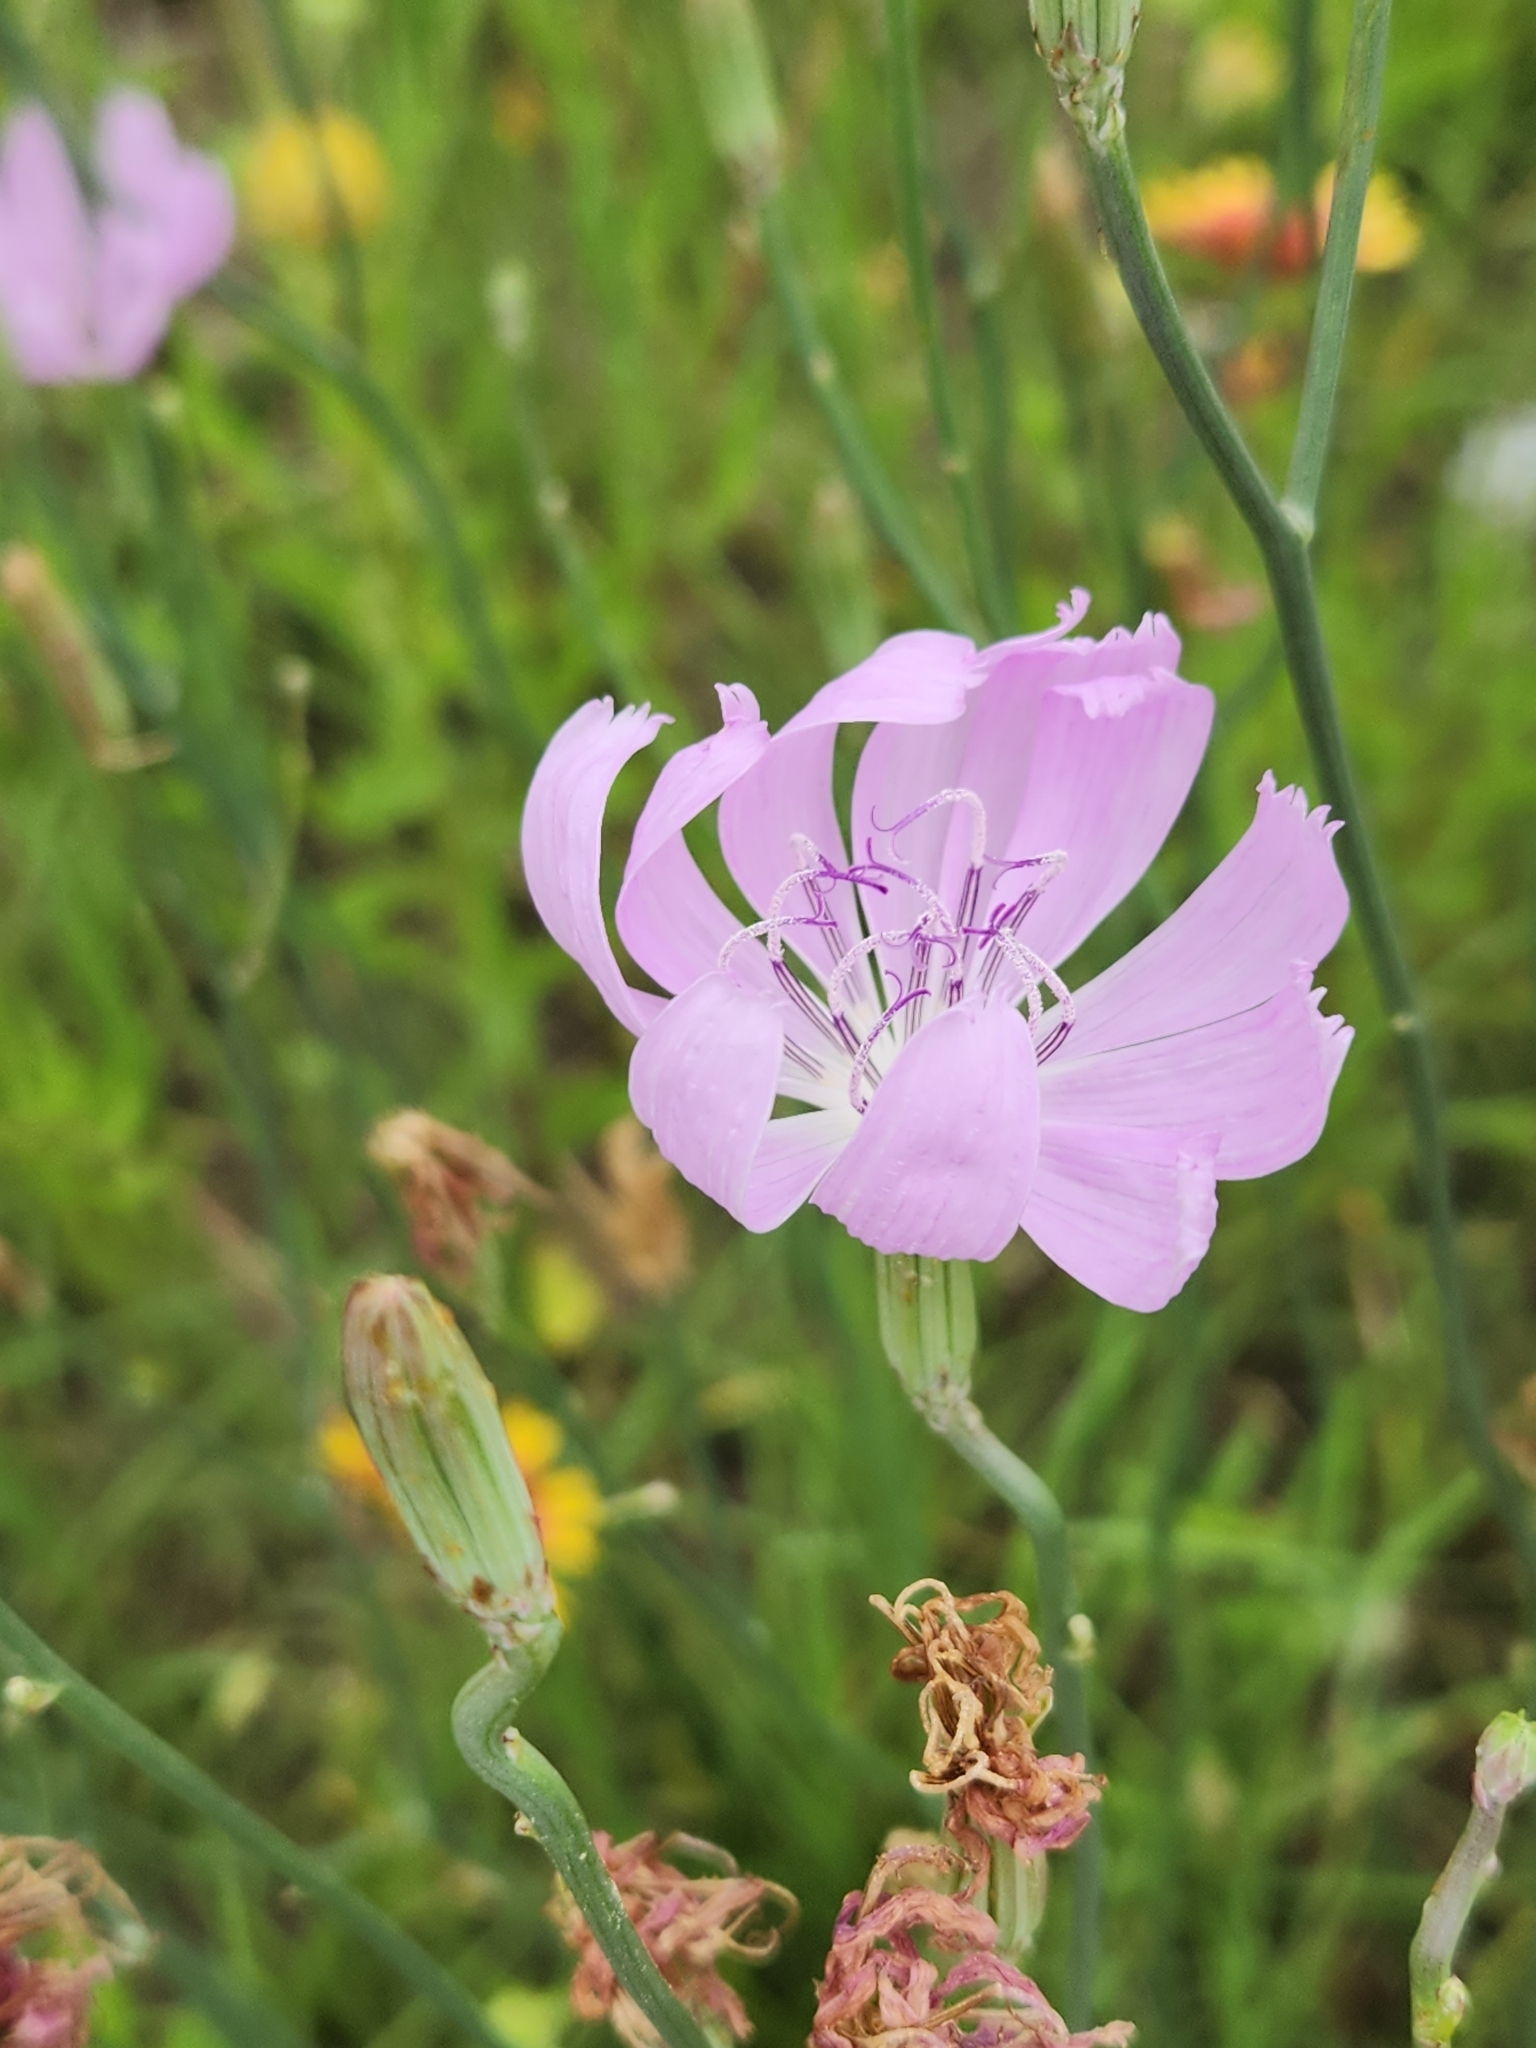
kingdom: Plantae
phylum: Tracheophyta
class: Magnoliopsida
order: Asterales
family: Asteraceae
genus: Lygodesmia
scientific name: Lygodesmia texana
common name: Texas skeleton-plant
